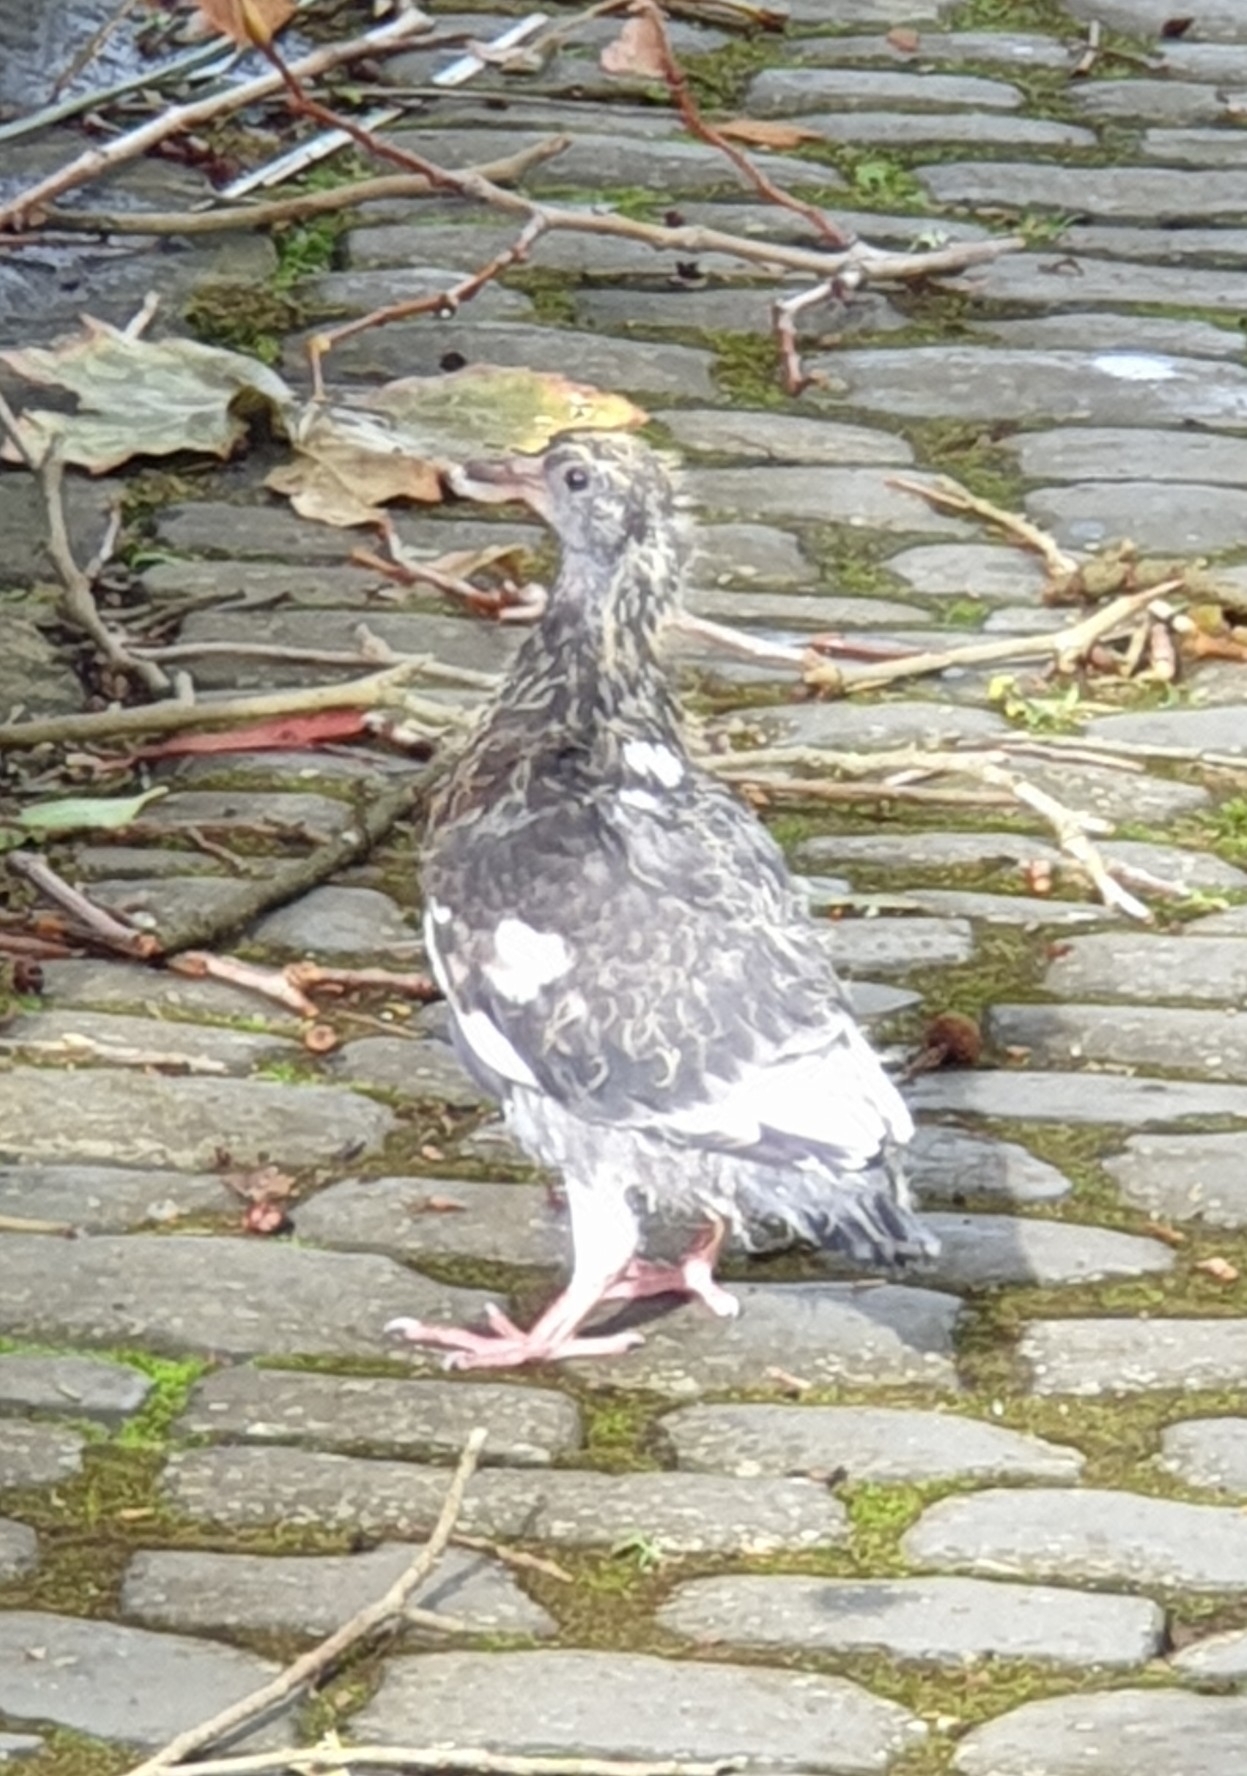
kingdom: Animalia
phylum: Chordata
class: Aves
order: Columbiformes
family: Columbidae
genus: Columba
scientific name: Columba livia
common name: Rock pigeon
